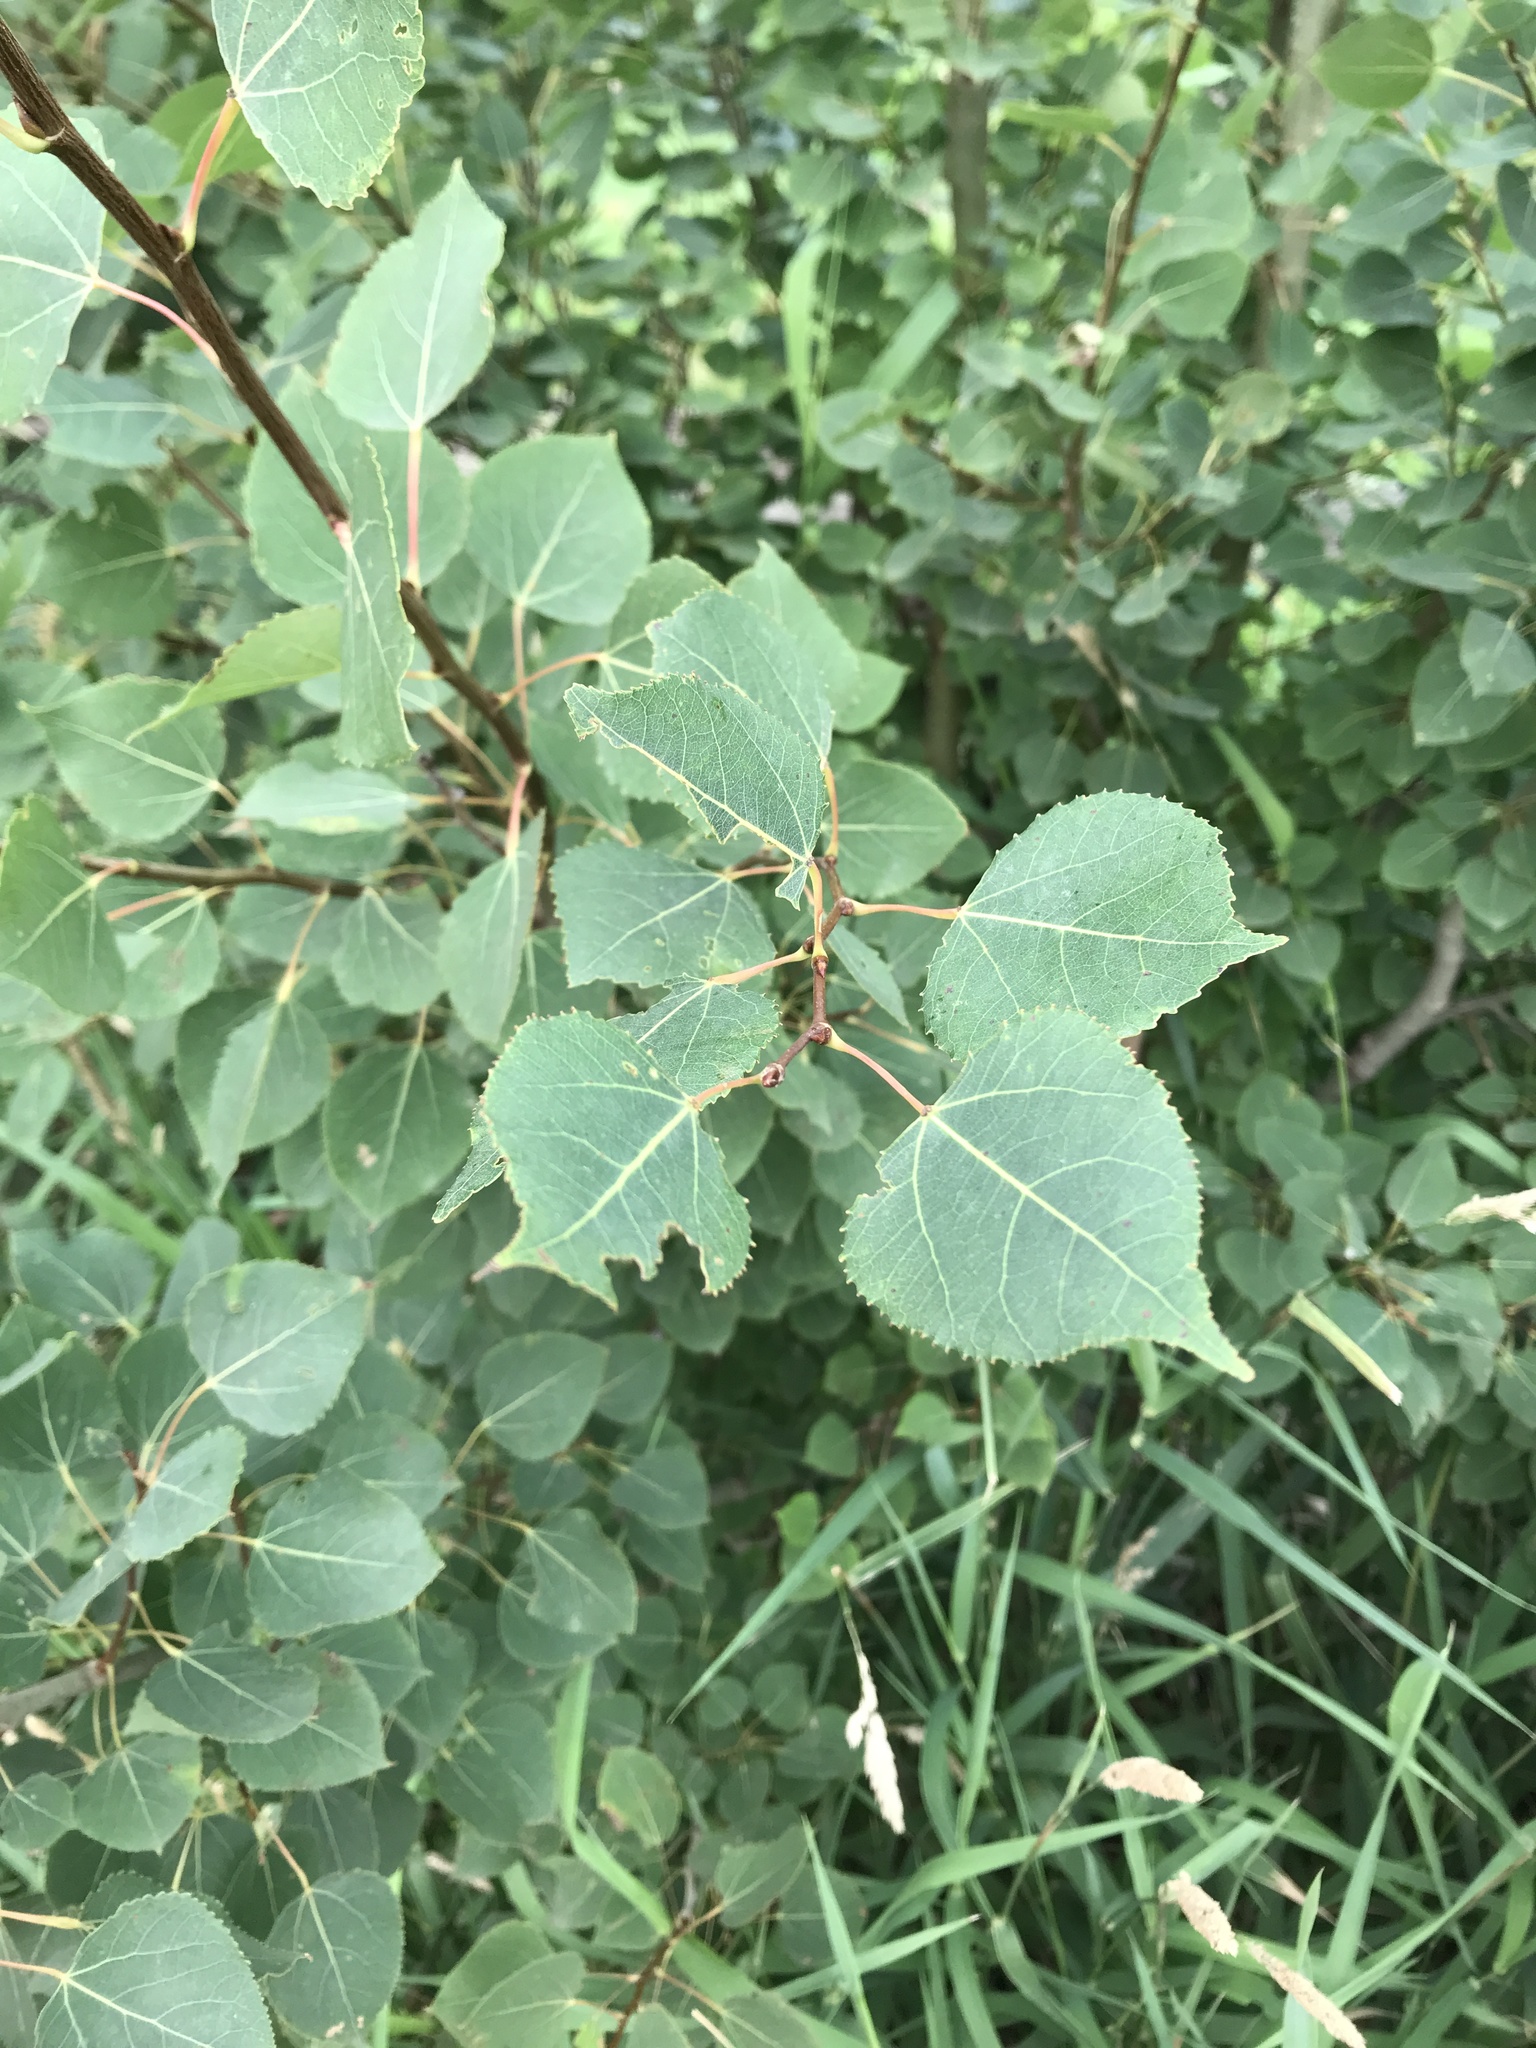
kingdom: Plantae
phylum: Tracheophyta
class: Magnoliopsida
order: Malpighiales
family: Salicaceae
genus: Populus
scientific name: Populus tremuloides
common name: Quaking aspen
